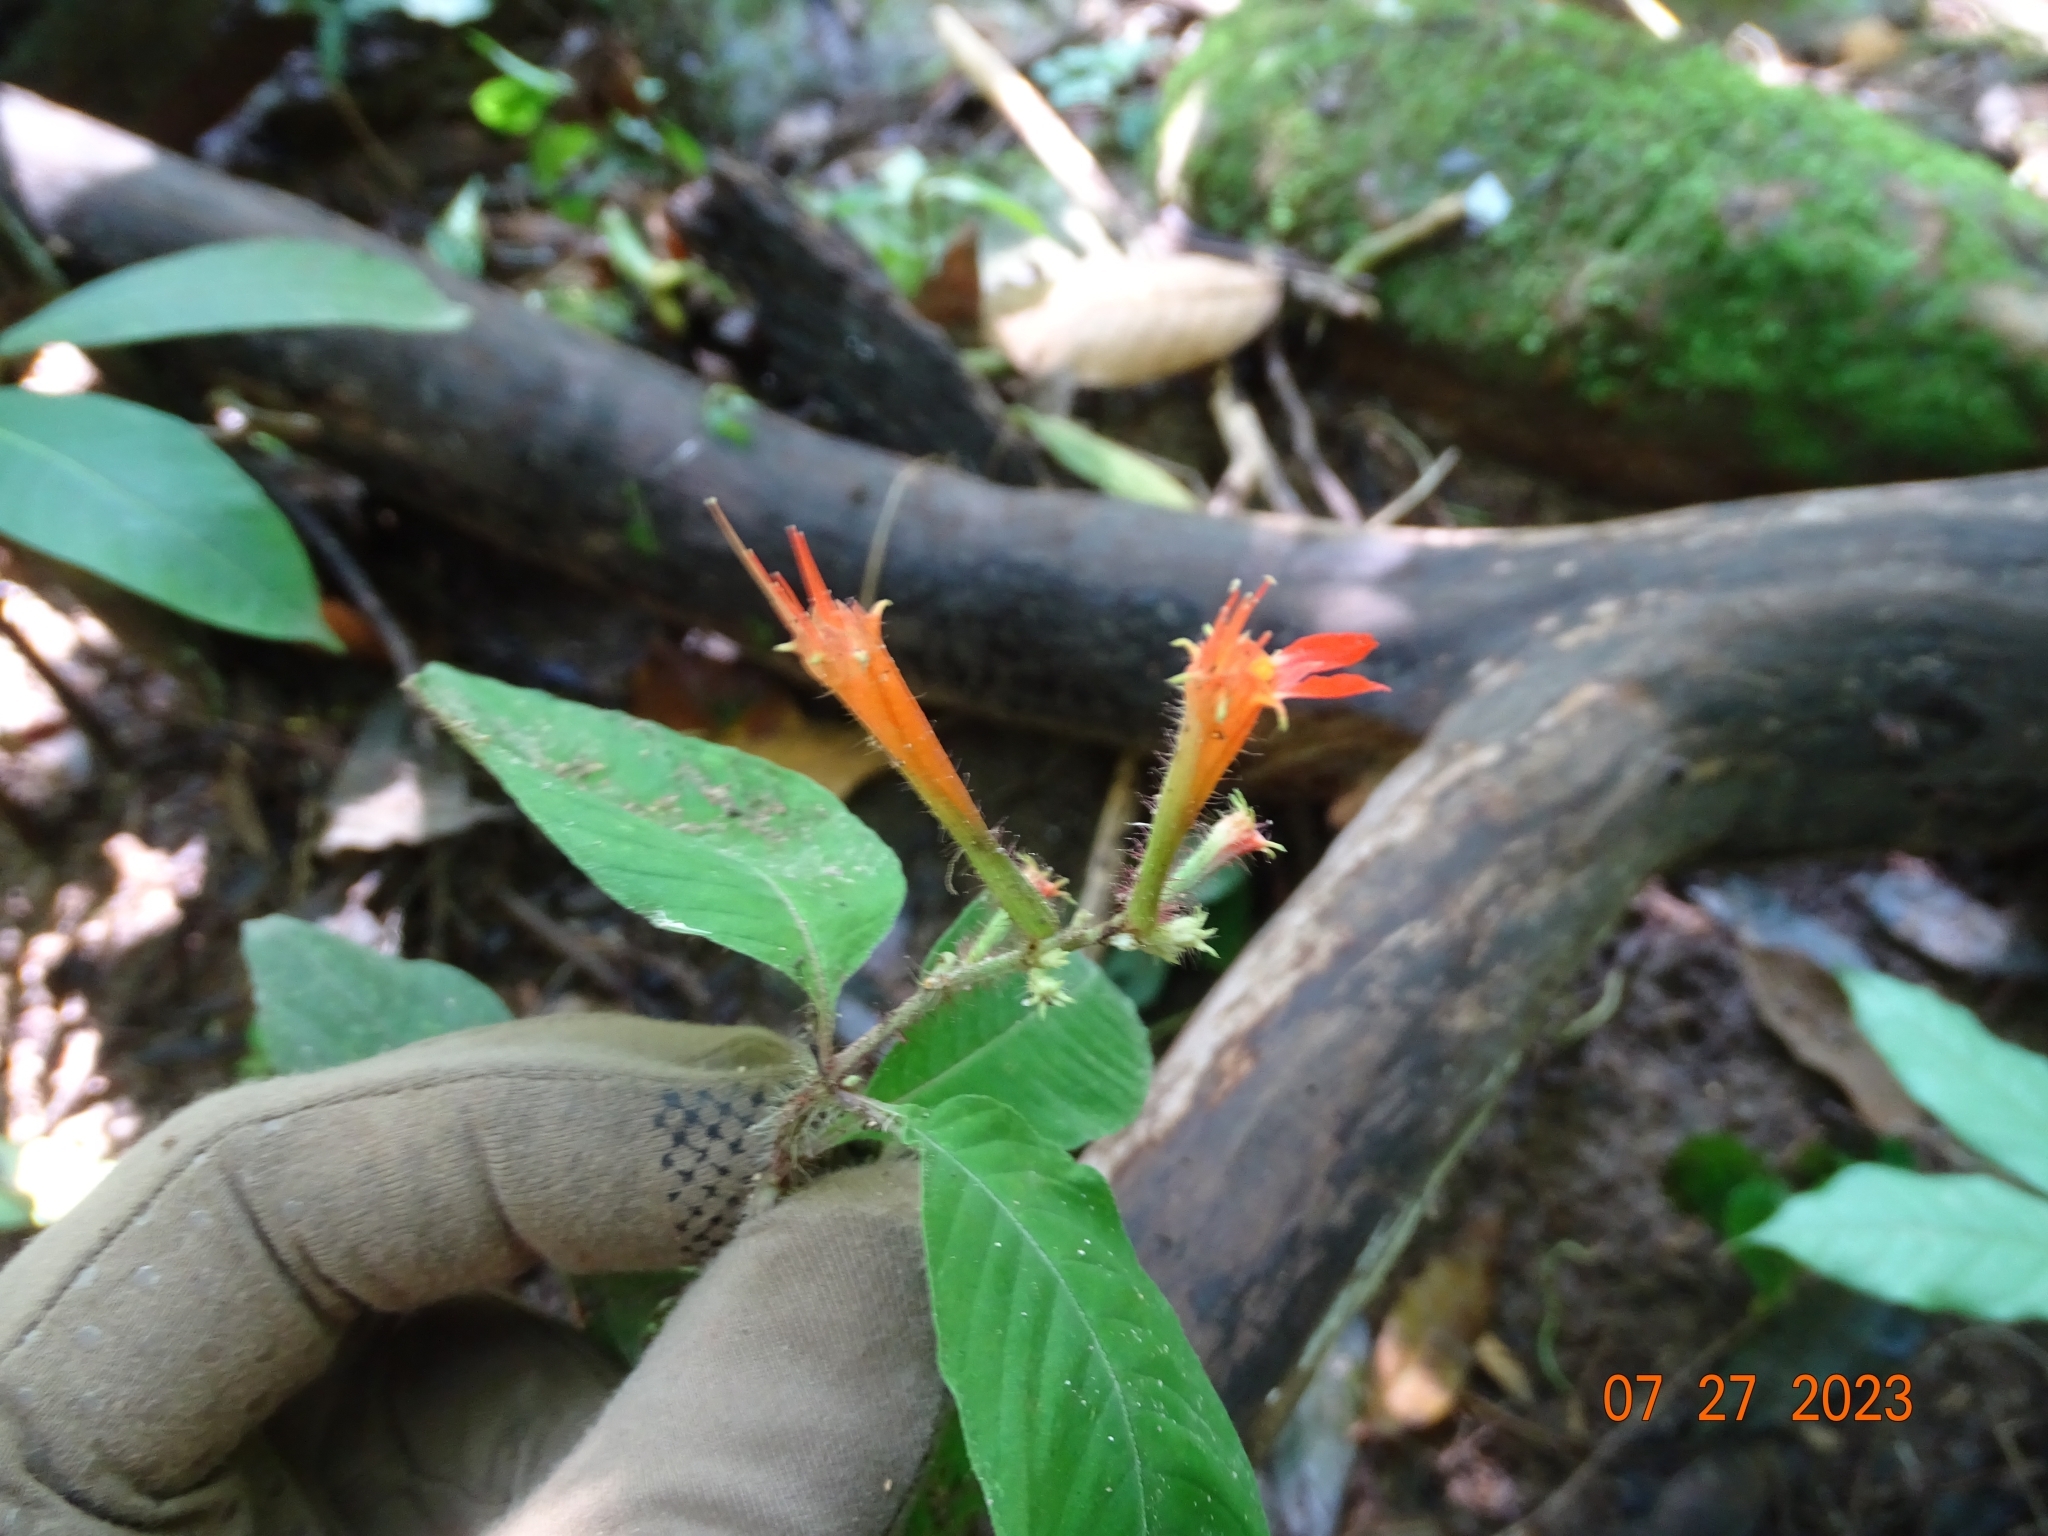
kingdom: Plantae
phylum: Tracheophyta
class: Magnoliopsida
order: Myrtales
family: Lythraceae
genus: Cuphea
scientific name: Cuphea appendiculata
